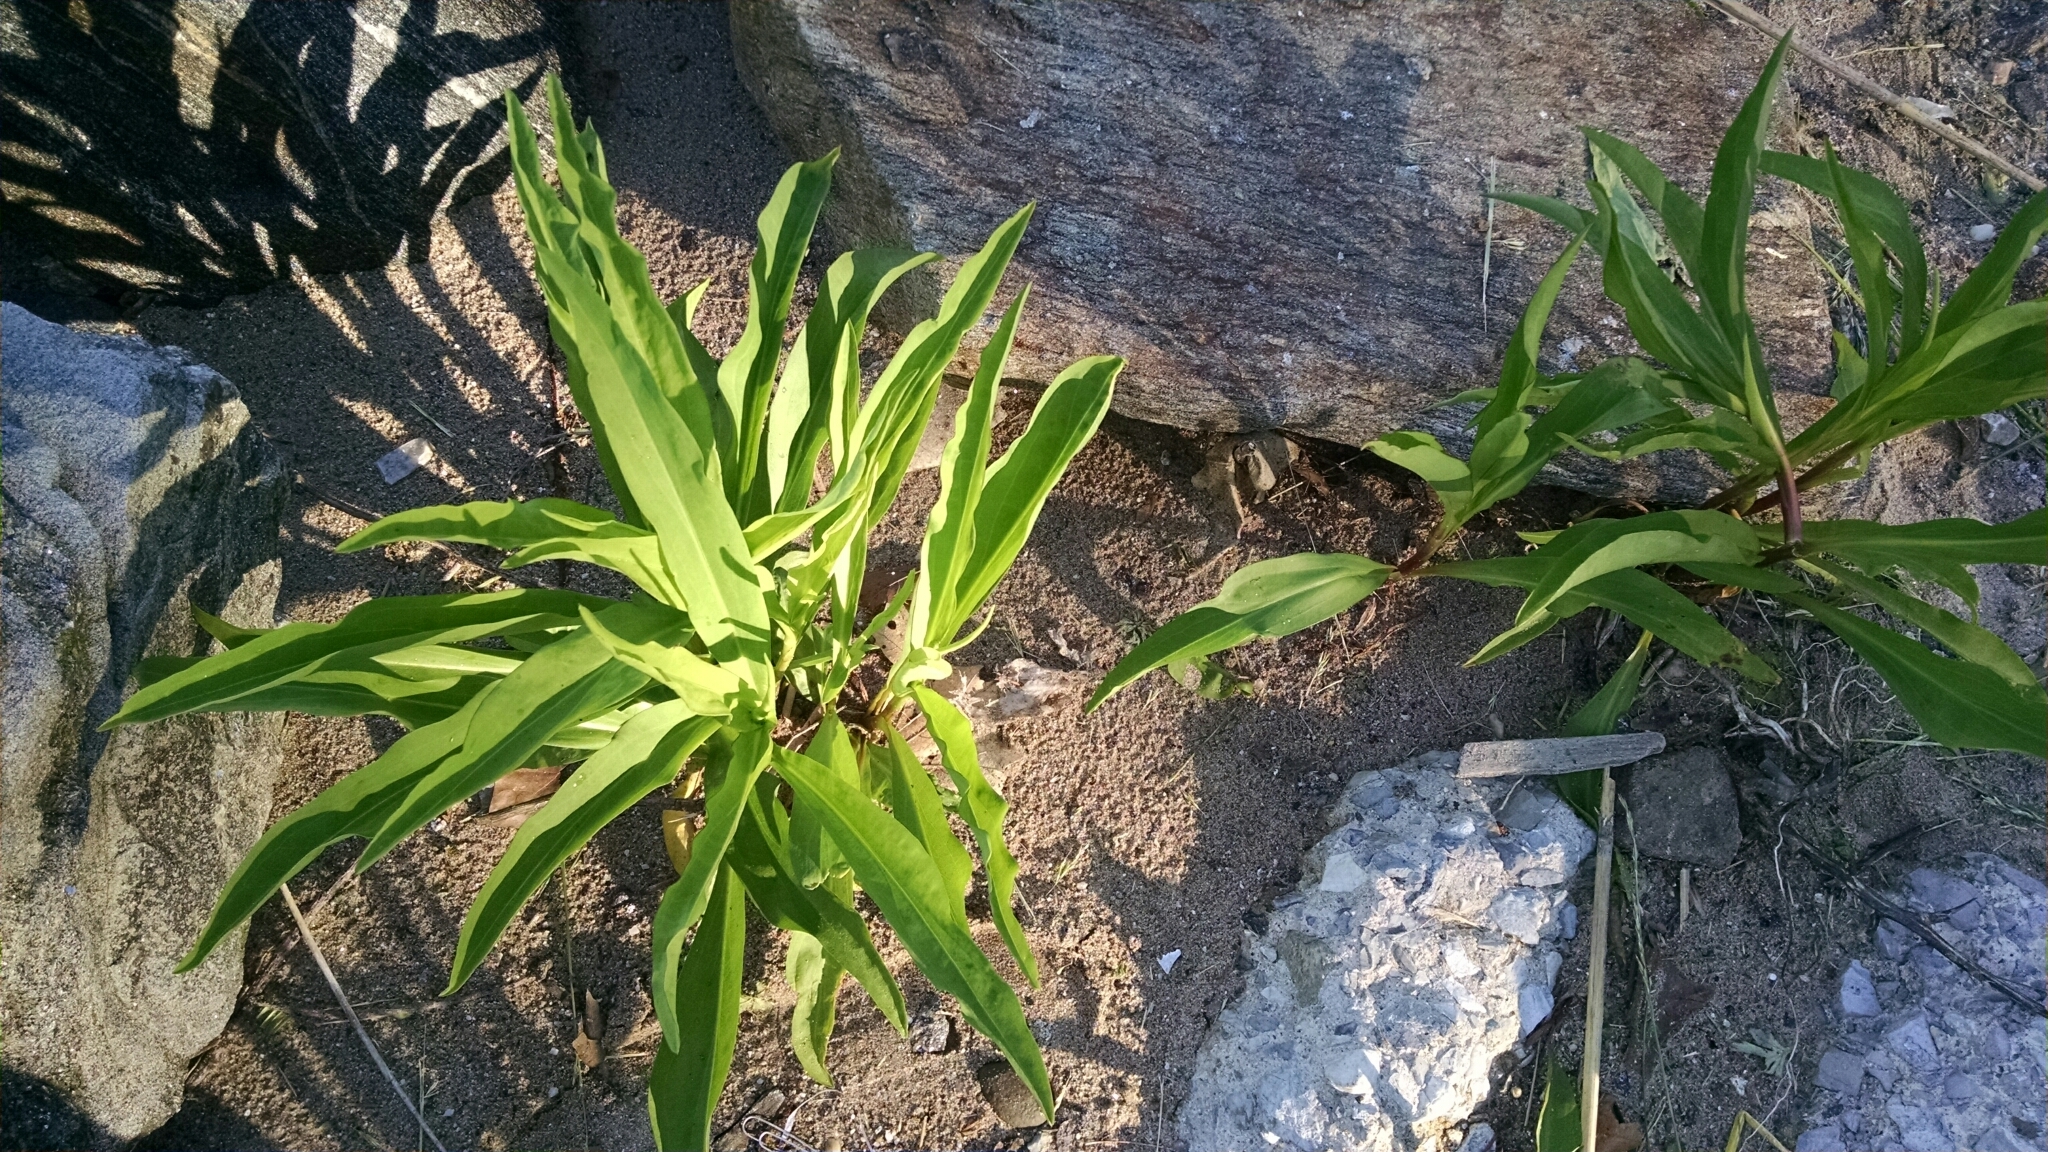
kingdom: Plantae
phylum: Tracheophyta
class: Magnoliopsida
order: Asterales
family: Asteraceae
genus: Solidago
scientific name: Solidago sempervirens
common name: Salt-marsh goldenrod
